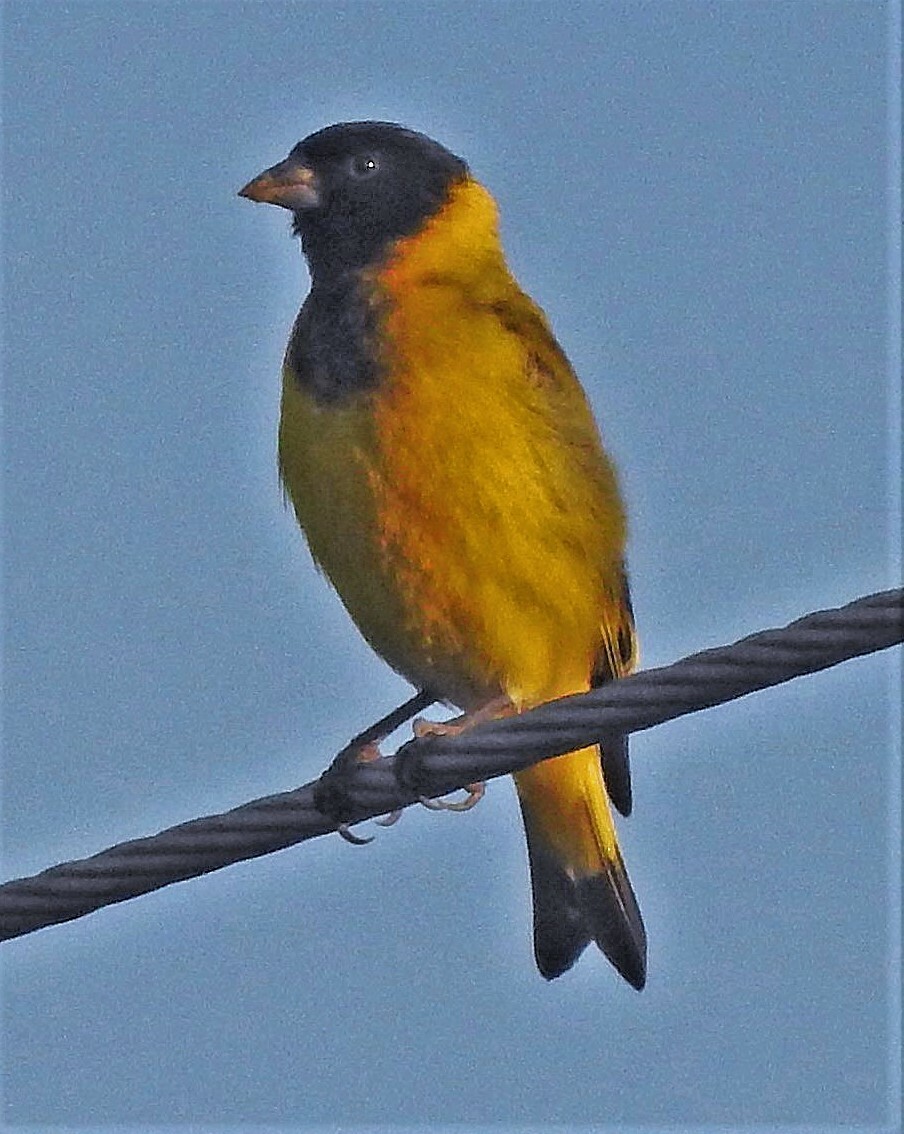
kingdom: Animalia
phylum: Chordata
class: Aves
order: Passeriformes
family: Fringillidae
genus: Spinus
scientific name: Spinus magellanicus
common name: Hooded siskin
